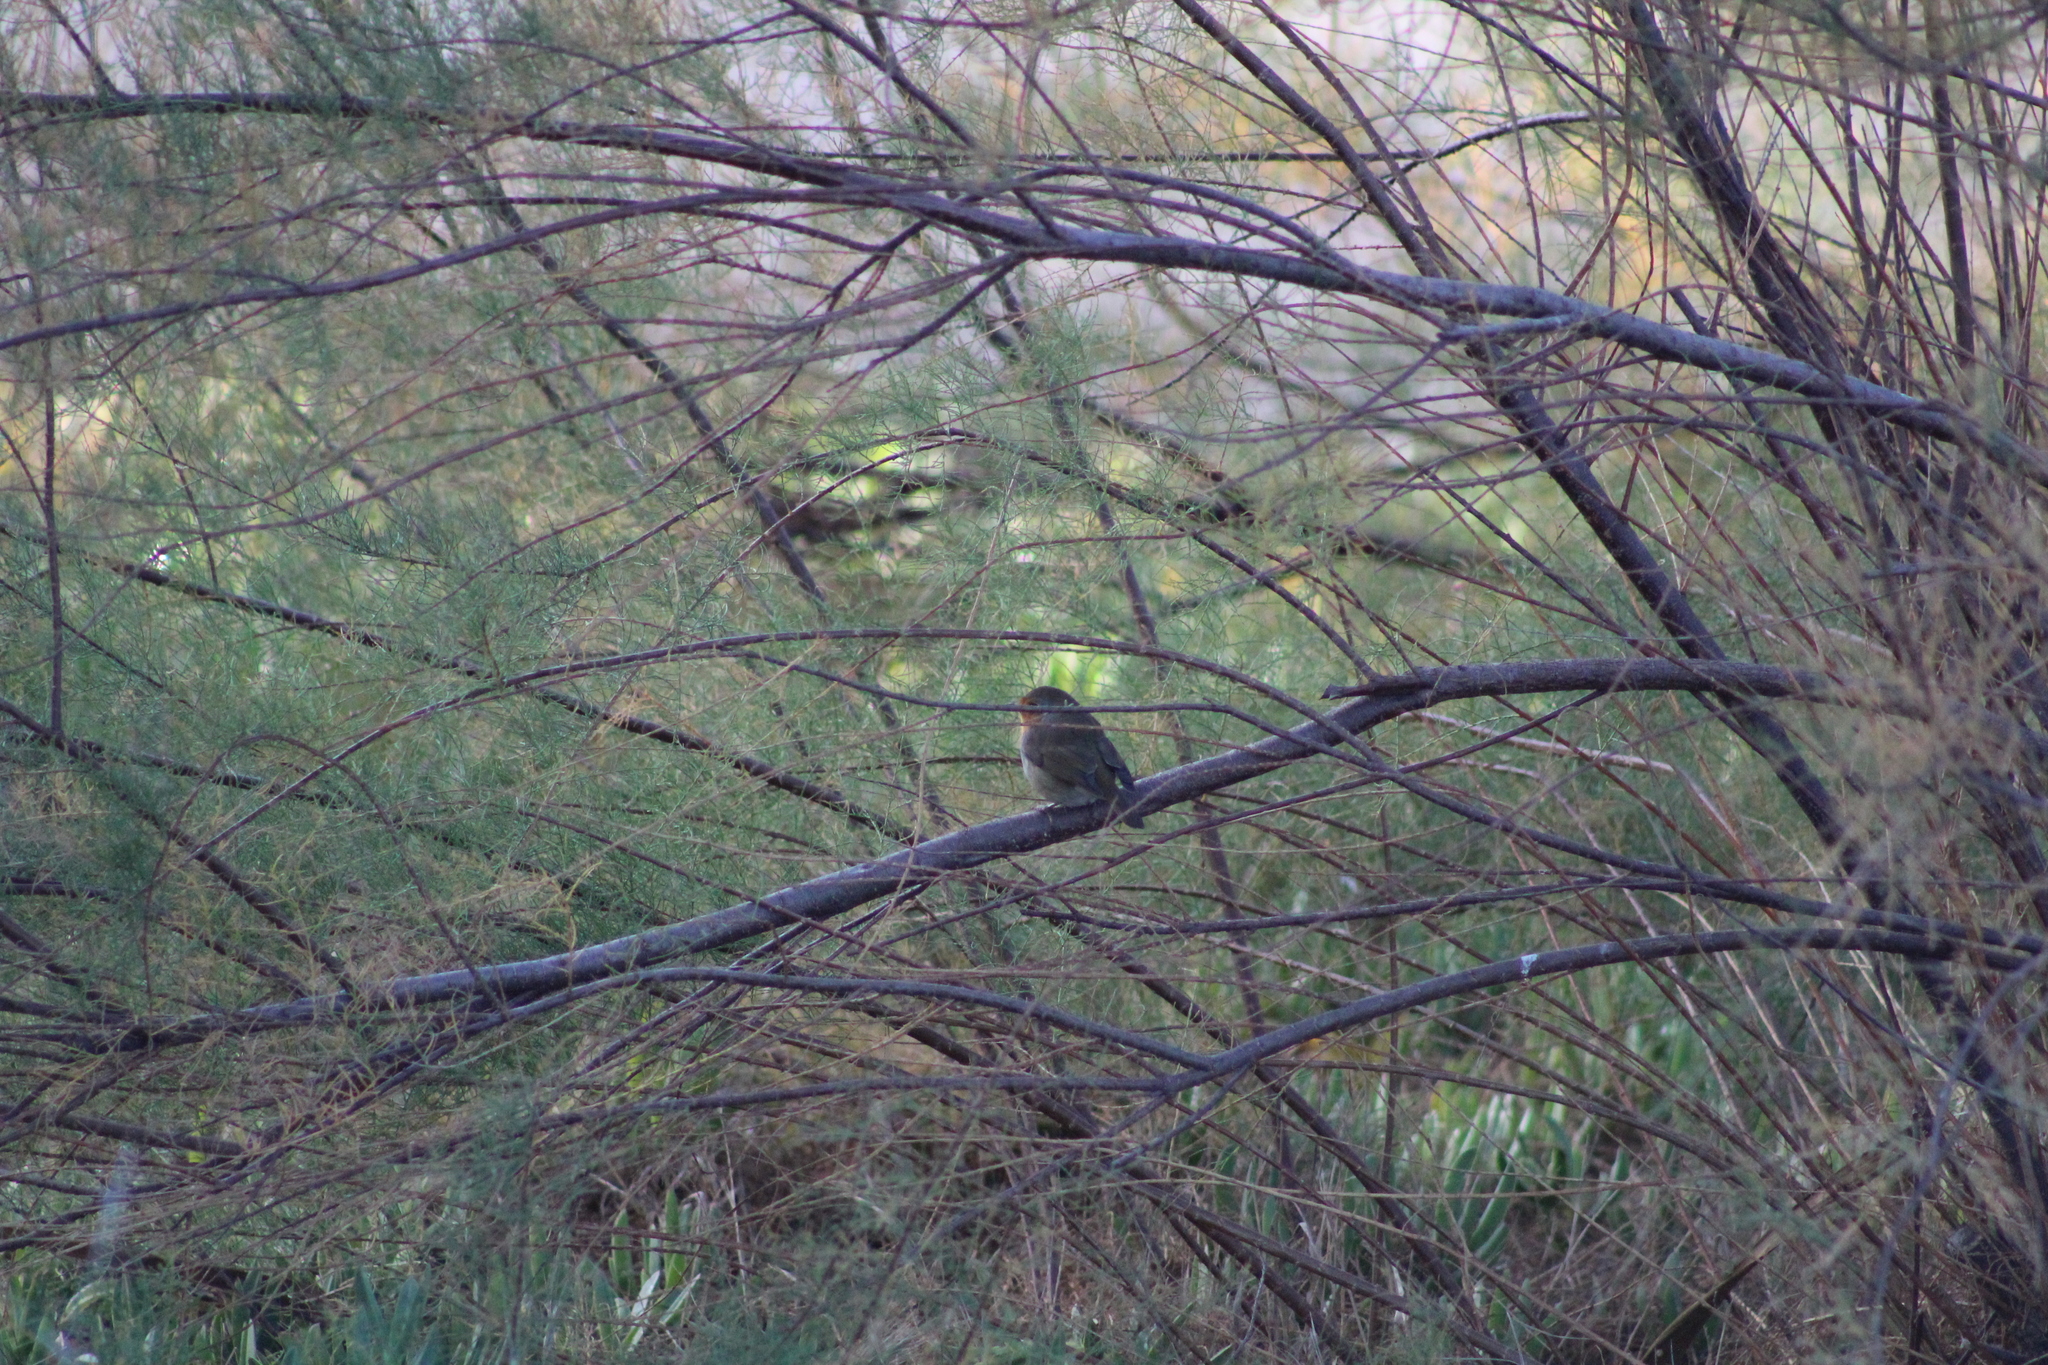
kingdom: Animalia
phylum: Chordata
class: Aves
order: Passeriformes
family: Muscicapidae
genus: Erithacus
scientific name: Erithacus rubecula
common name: European robin
